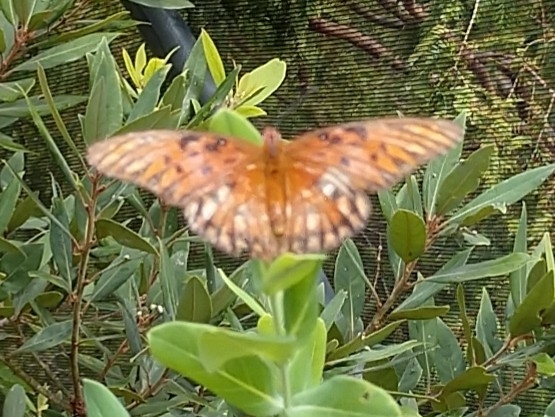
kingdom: Animalia
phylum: Arthropoda
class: Insecta
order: Lepidoptera
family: Nymphalidae
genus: Dione
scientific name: Dione vanillae
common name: Gulf fritillary
